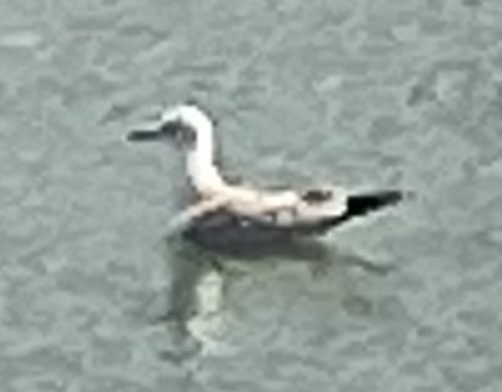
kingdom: Animalia
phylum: Chordata
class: Aves
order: Charadriiformes
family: Laridae
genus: Chroicocephalus
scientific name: Chroicocephalus ridibundus
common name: Black-headed gull
